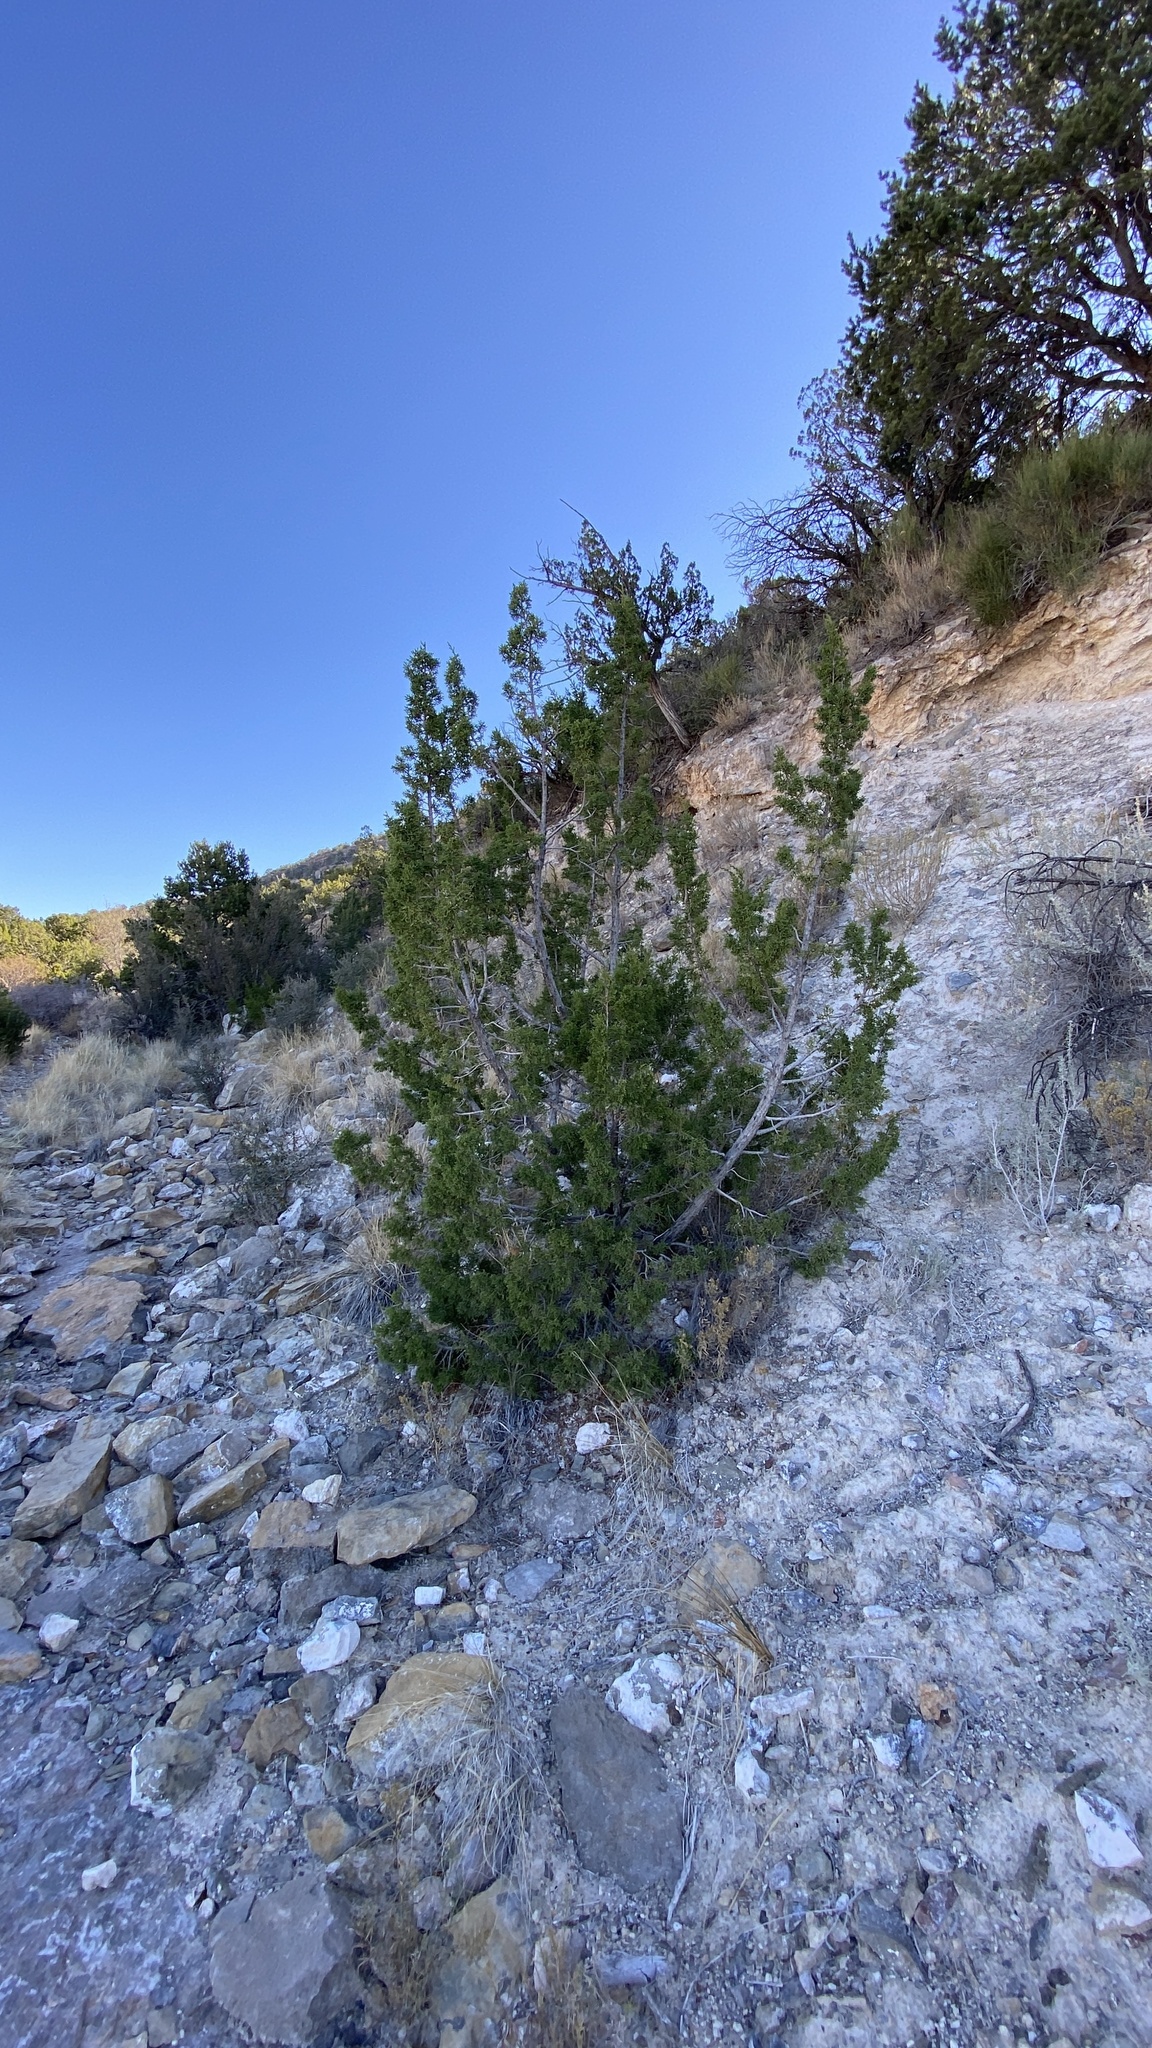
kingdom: Plantae
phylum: Tracheophyta
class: Pinopsida
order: Pinales
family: Cupressaceae
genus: Juniperus
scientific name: Juniperus monosperma
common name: One-seed juniper
